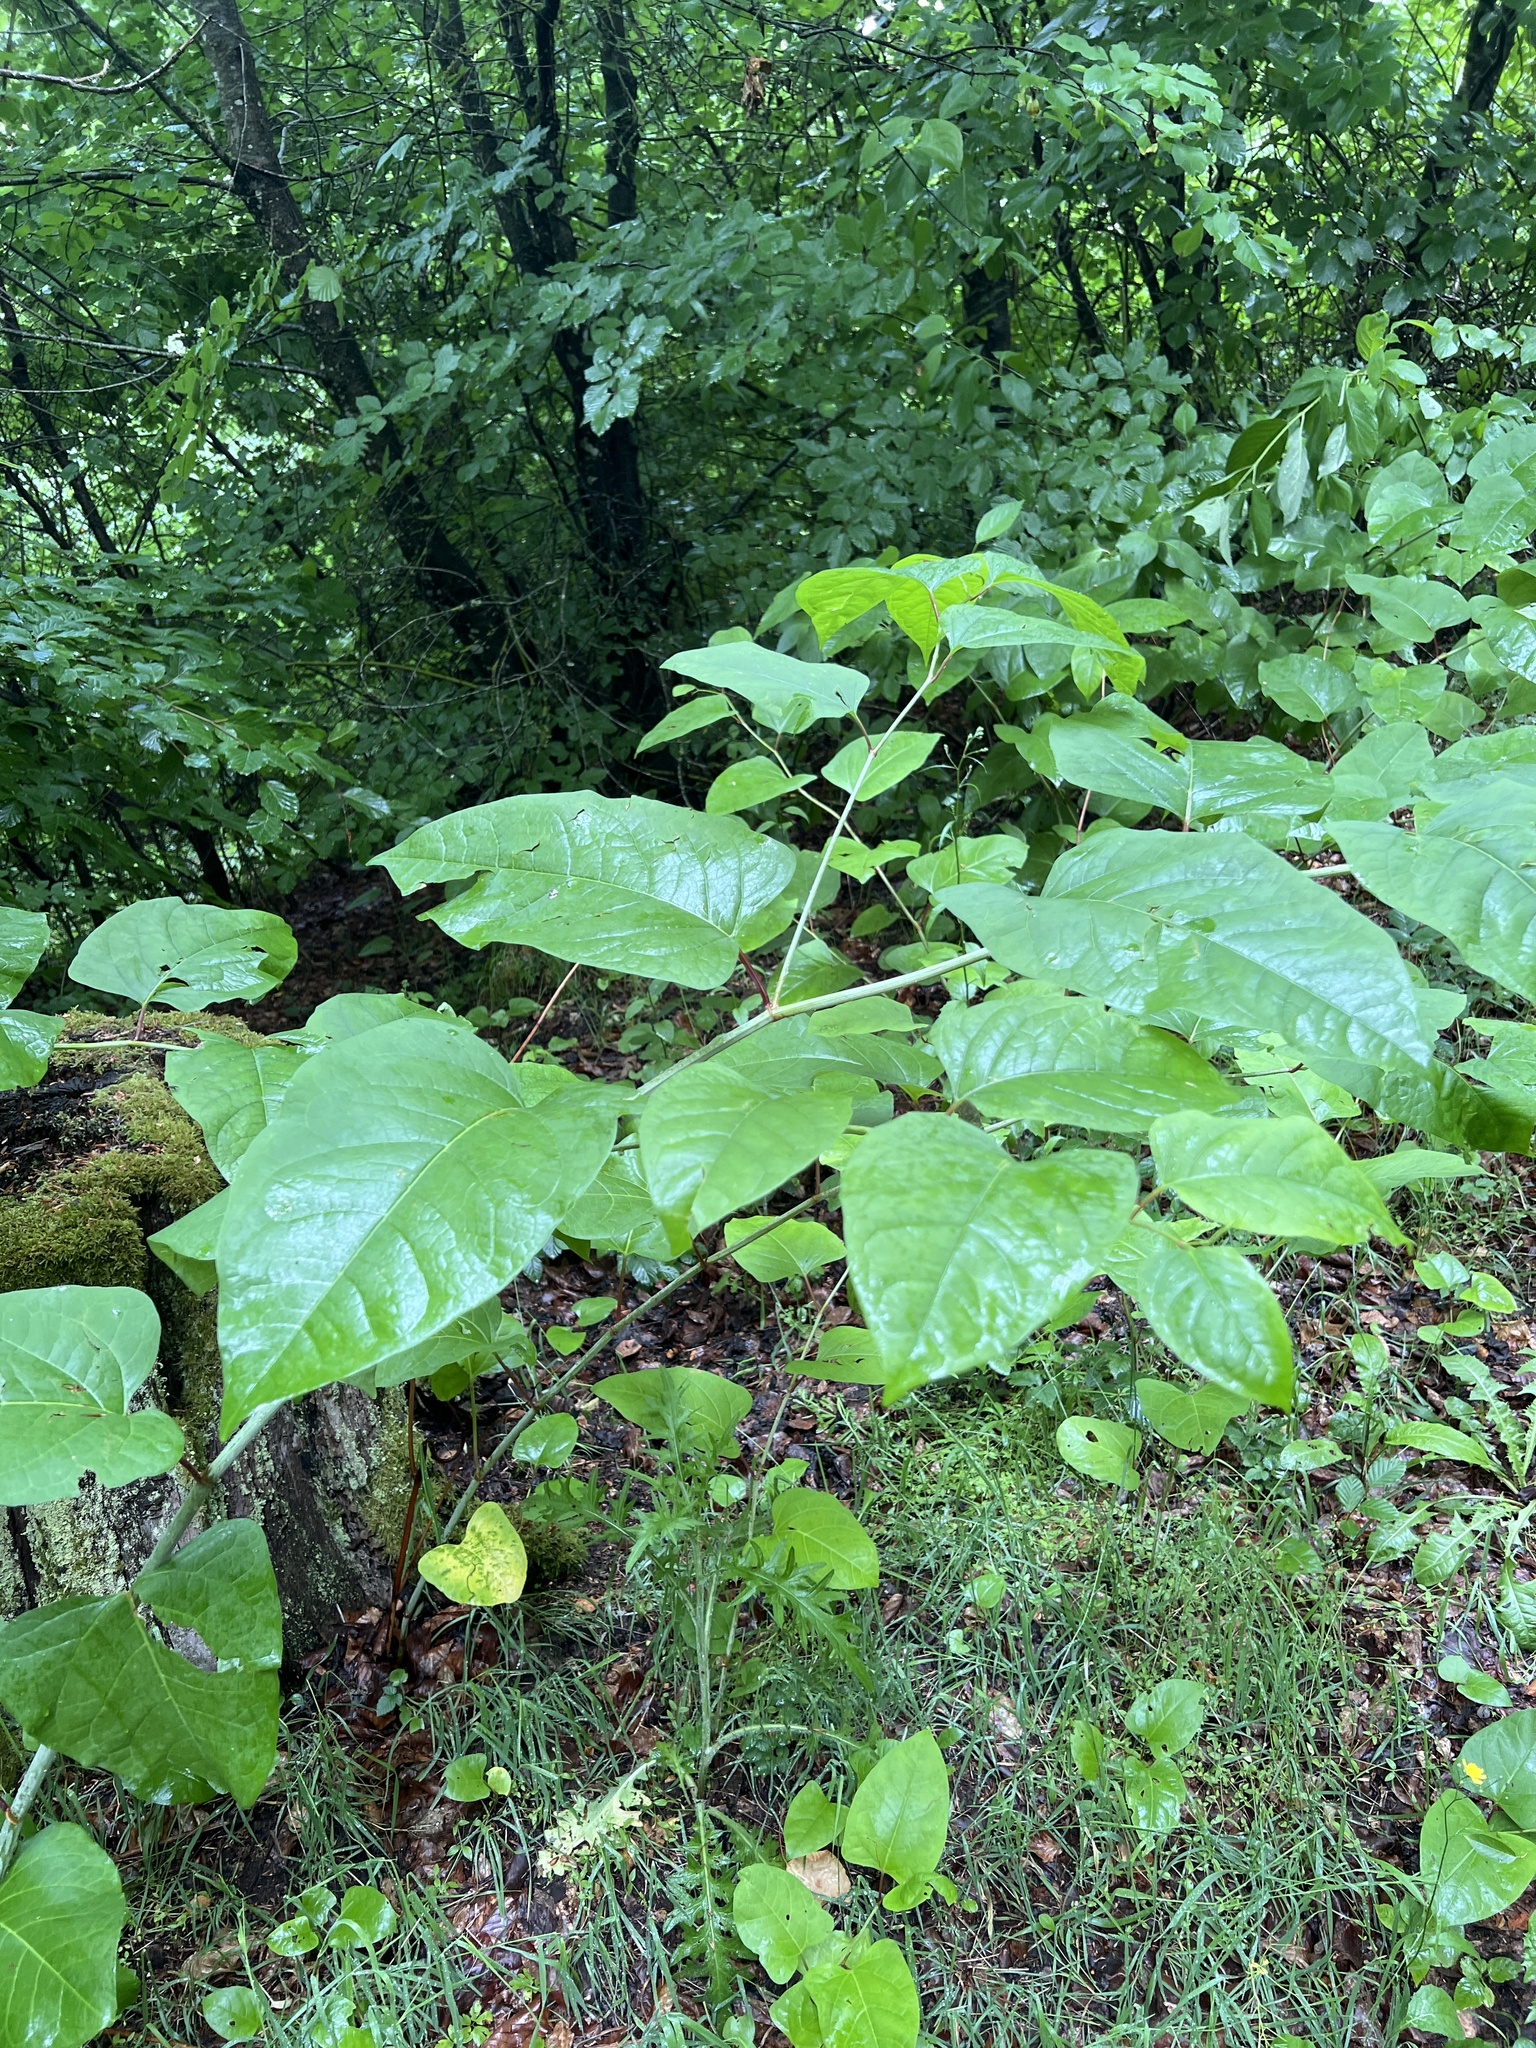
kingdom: Plantae
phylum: Tracheophyta
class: Magnoliopsida
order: Caryophyllales
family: Polygonaceae
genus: Reynoutria
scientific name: Reynoutria bohemica
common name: Bohemian knotweed
